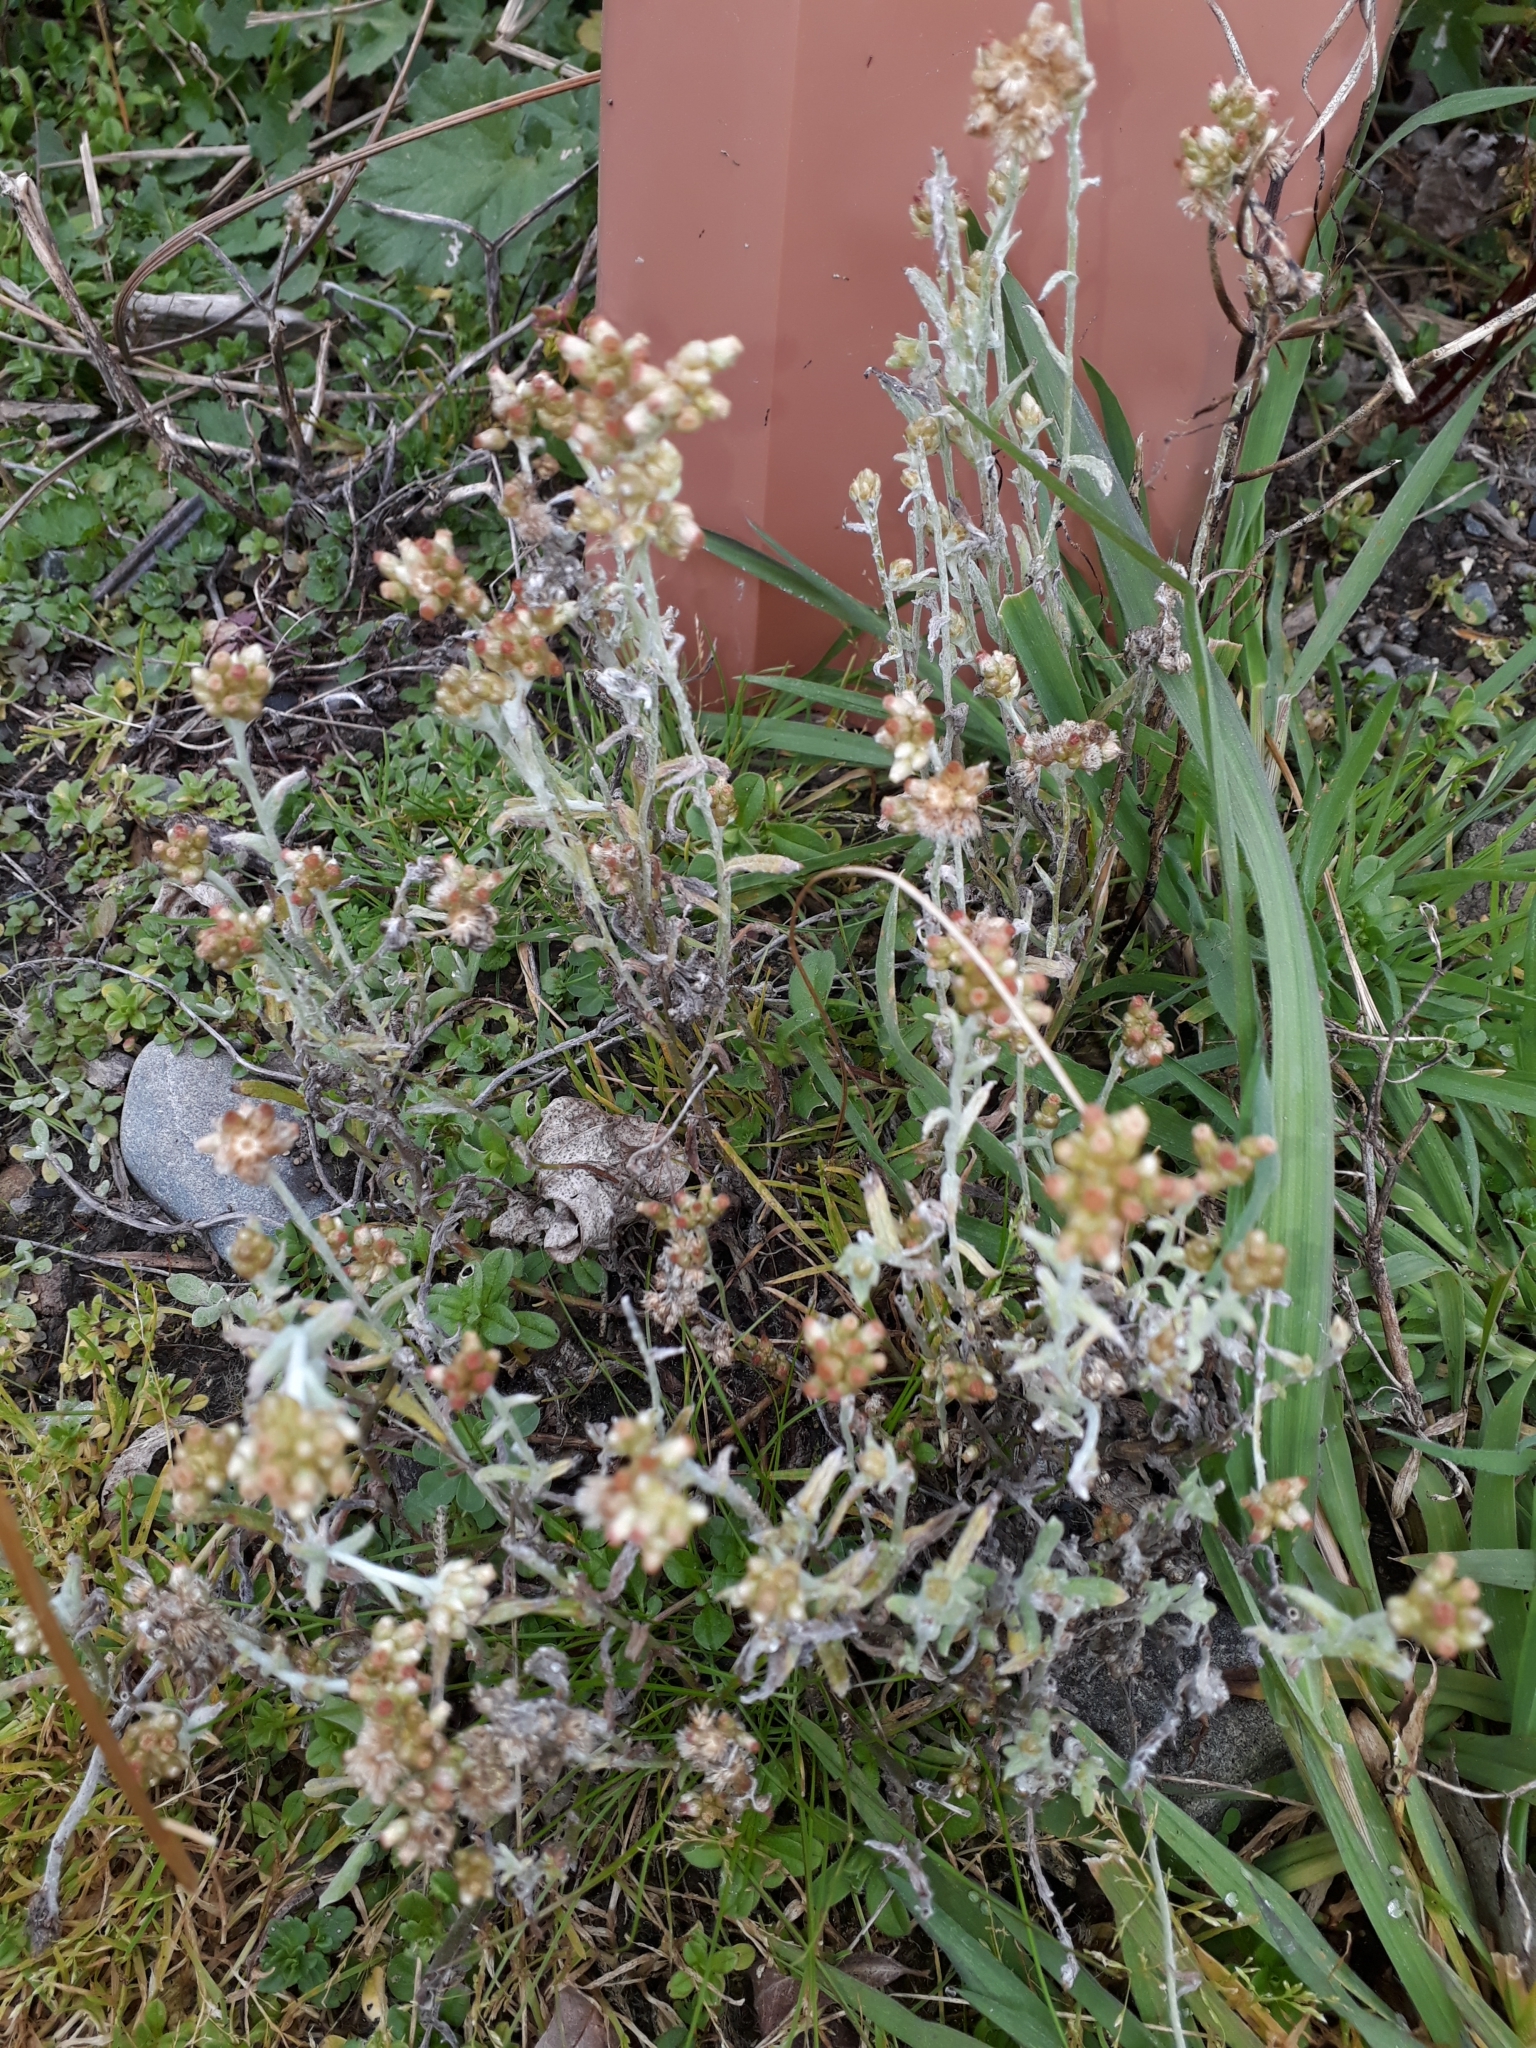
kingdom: Plantae
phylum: Tracheophyta
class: Magnoliopsida
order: Asterales
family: Asteraceae
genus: Helichrysum
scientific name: Helichrysum luteoalbum
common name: Daisy
